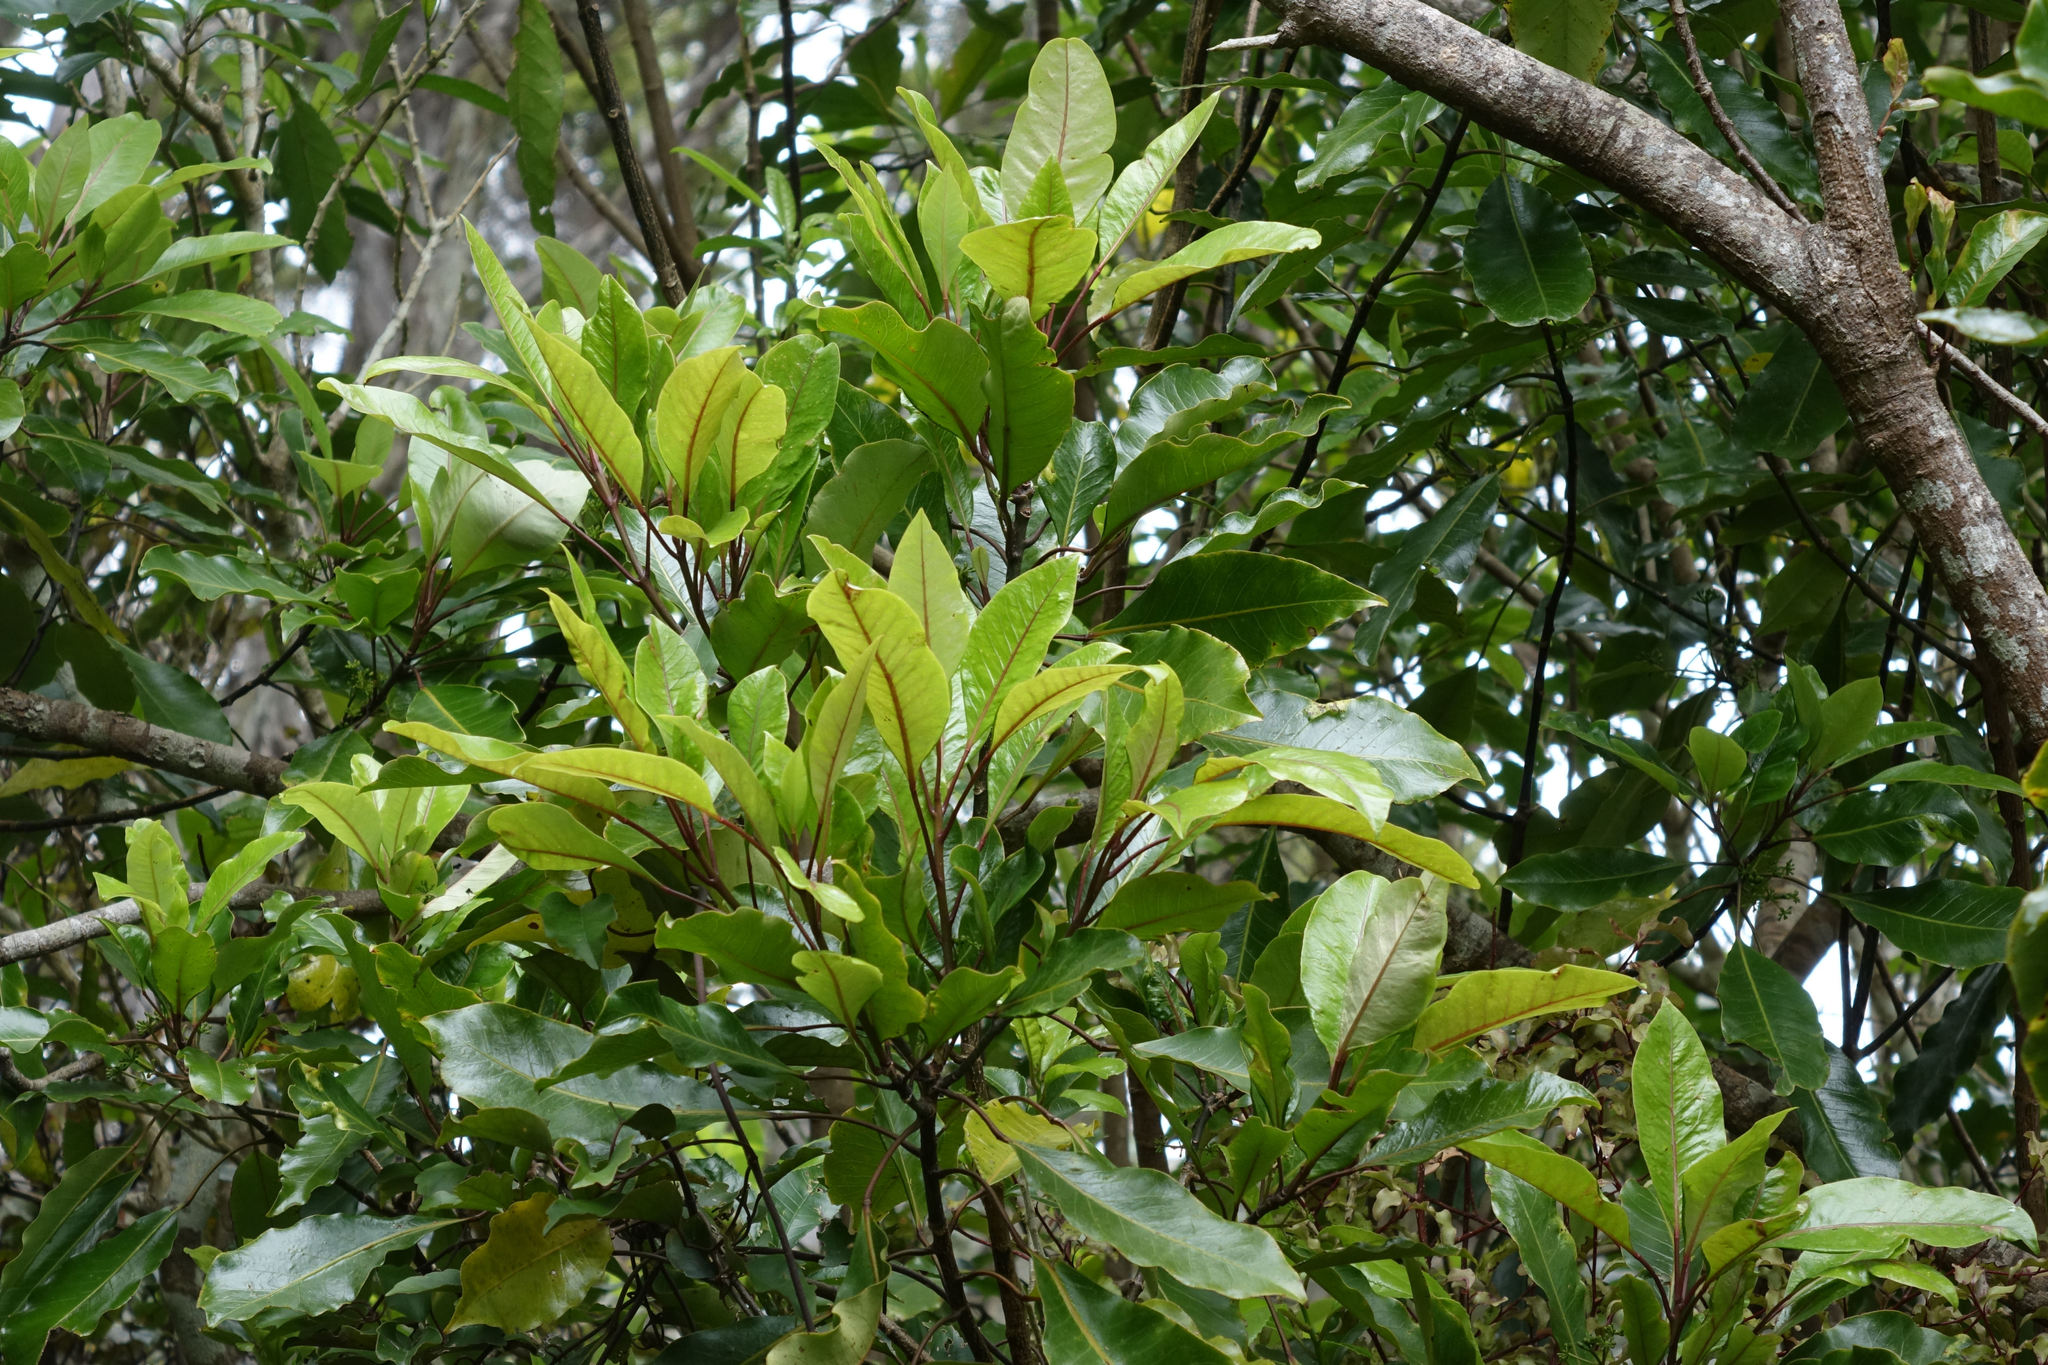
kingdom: Plantae
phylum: Tracheophyta
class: Magnoliopsida
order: Apiales
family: Araliaceae
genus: Raukaua
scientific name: Raukaua edgerleyi
